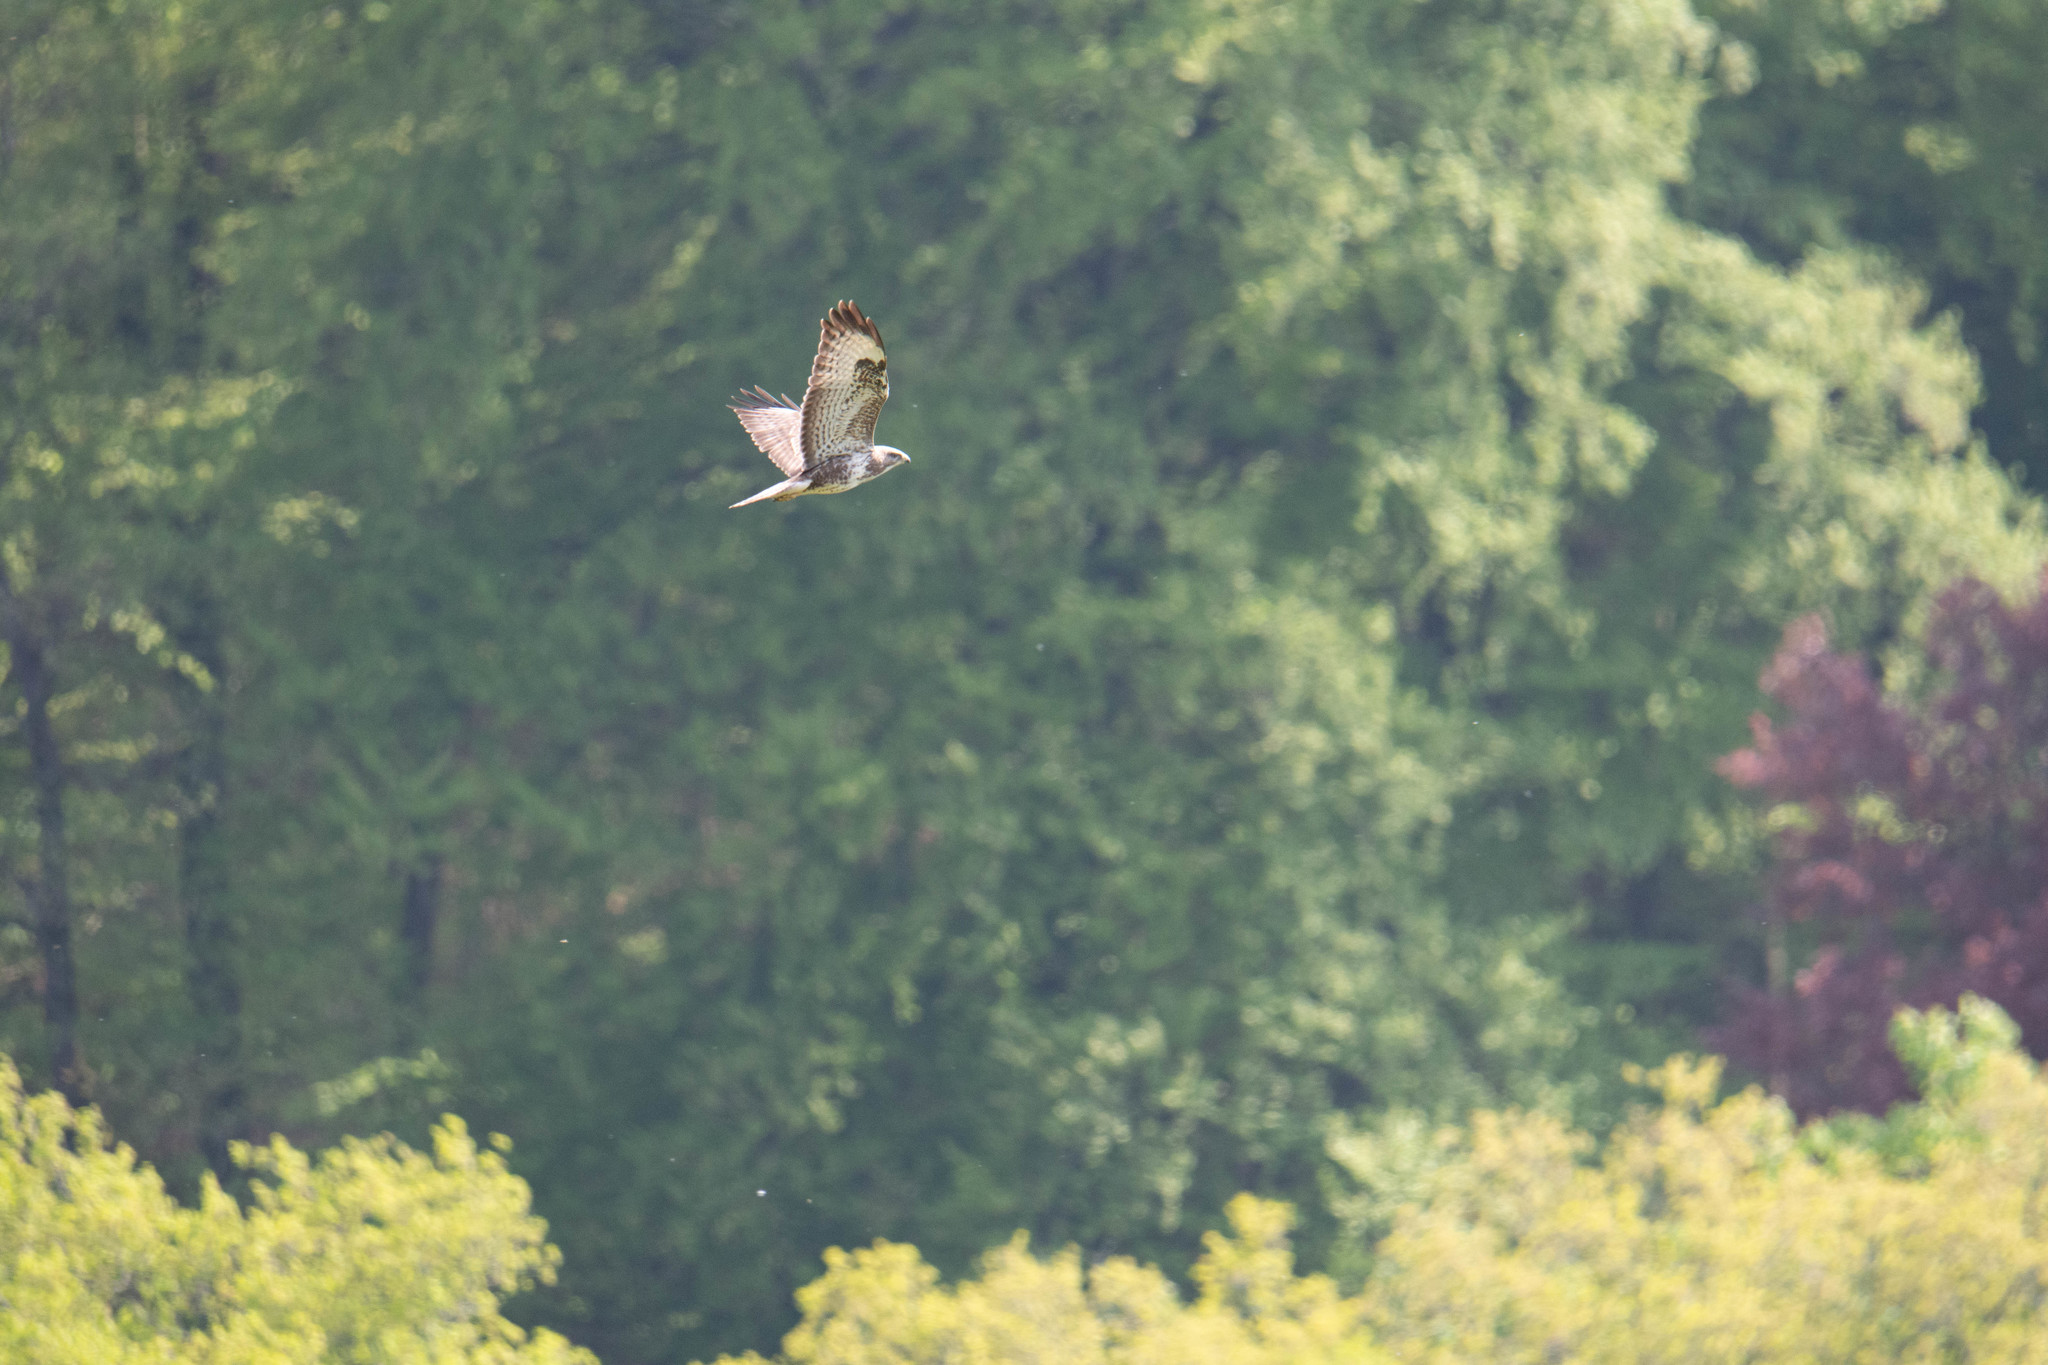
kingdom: Animalia
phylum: Chordata
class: Aves
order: Accipitriformes
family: Accipitridae
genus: Buteo
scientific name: Buteo buteo
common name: Common buzzard
